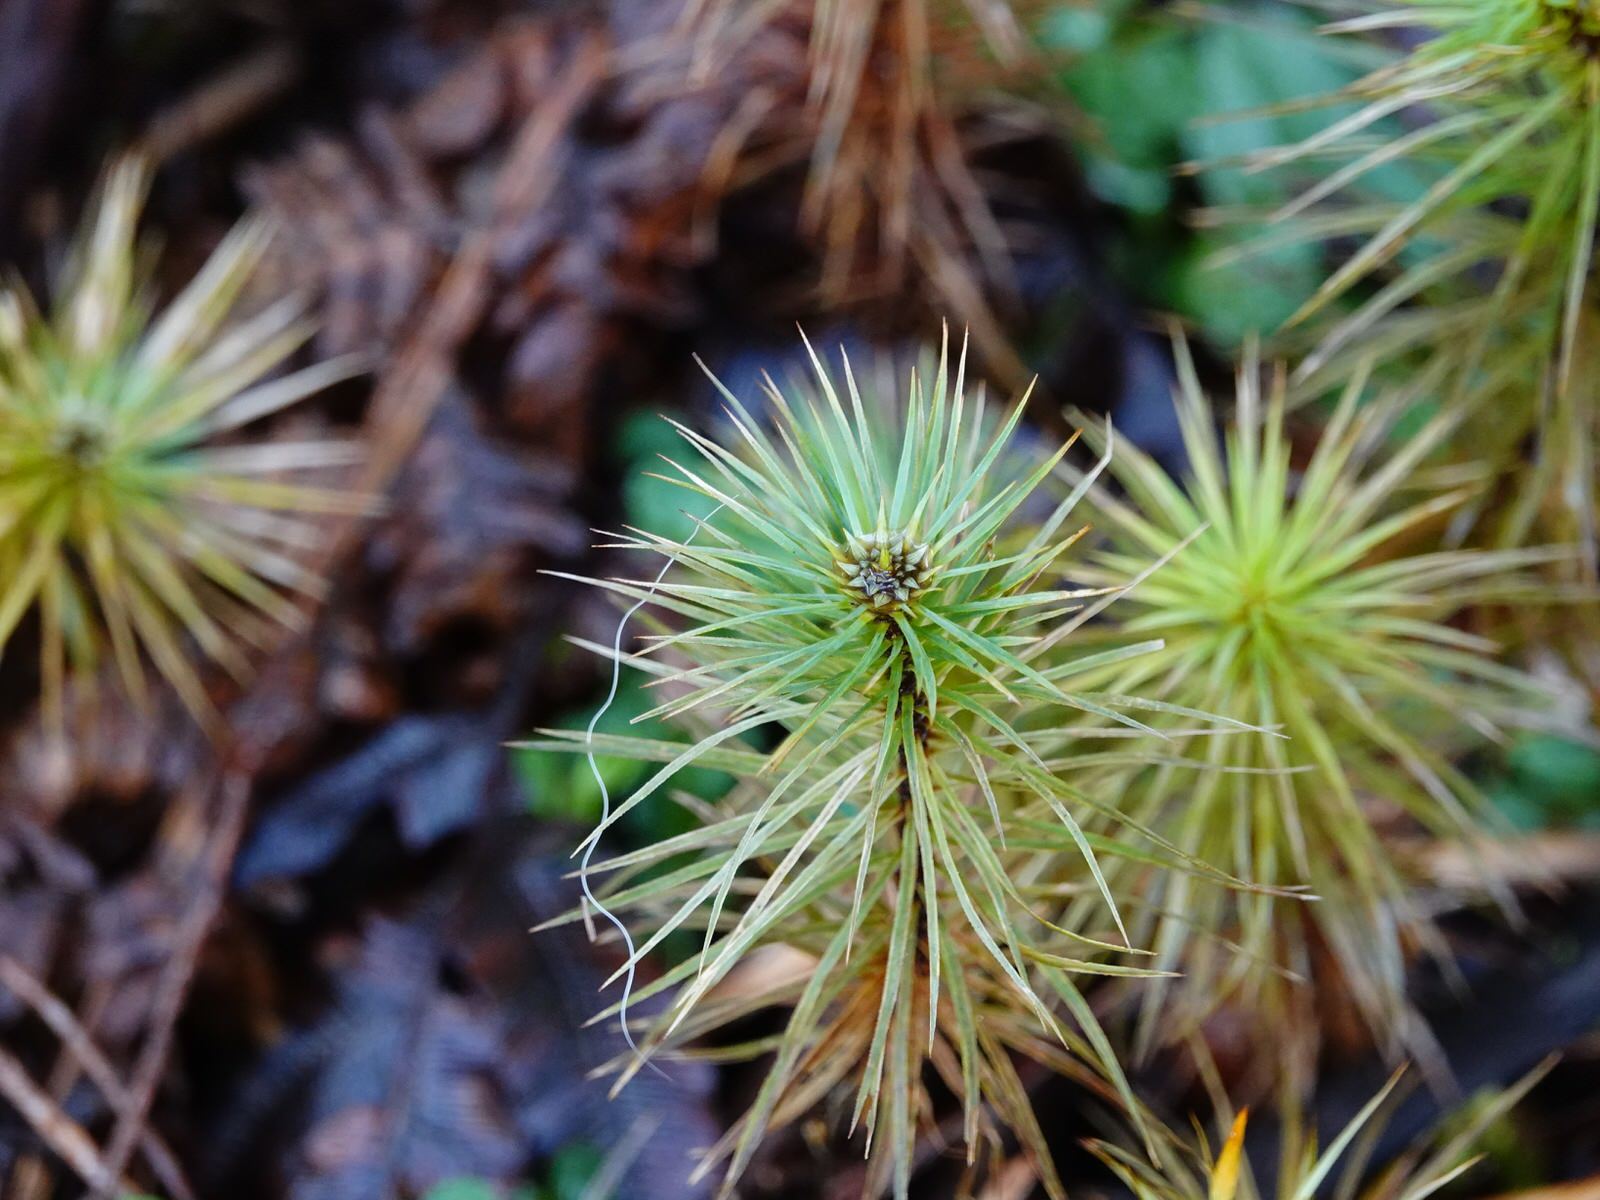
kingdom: Plantae
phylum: Bryophyta
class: Polytrichopsida
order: Polytrichales
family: Polytrichaceae
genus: Dawsonia
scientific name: Dawsonia superba
